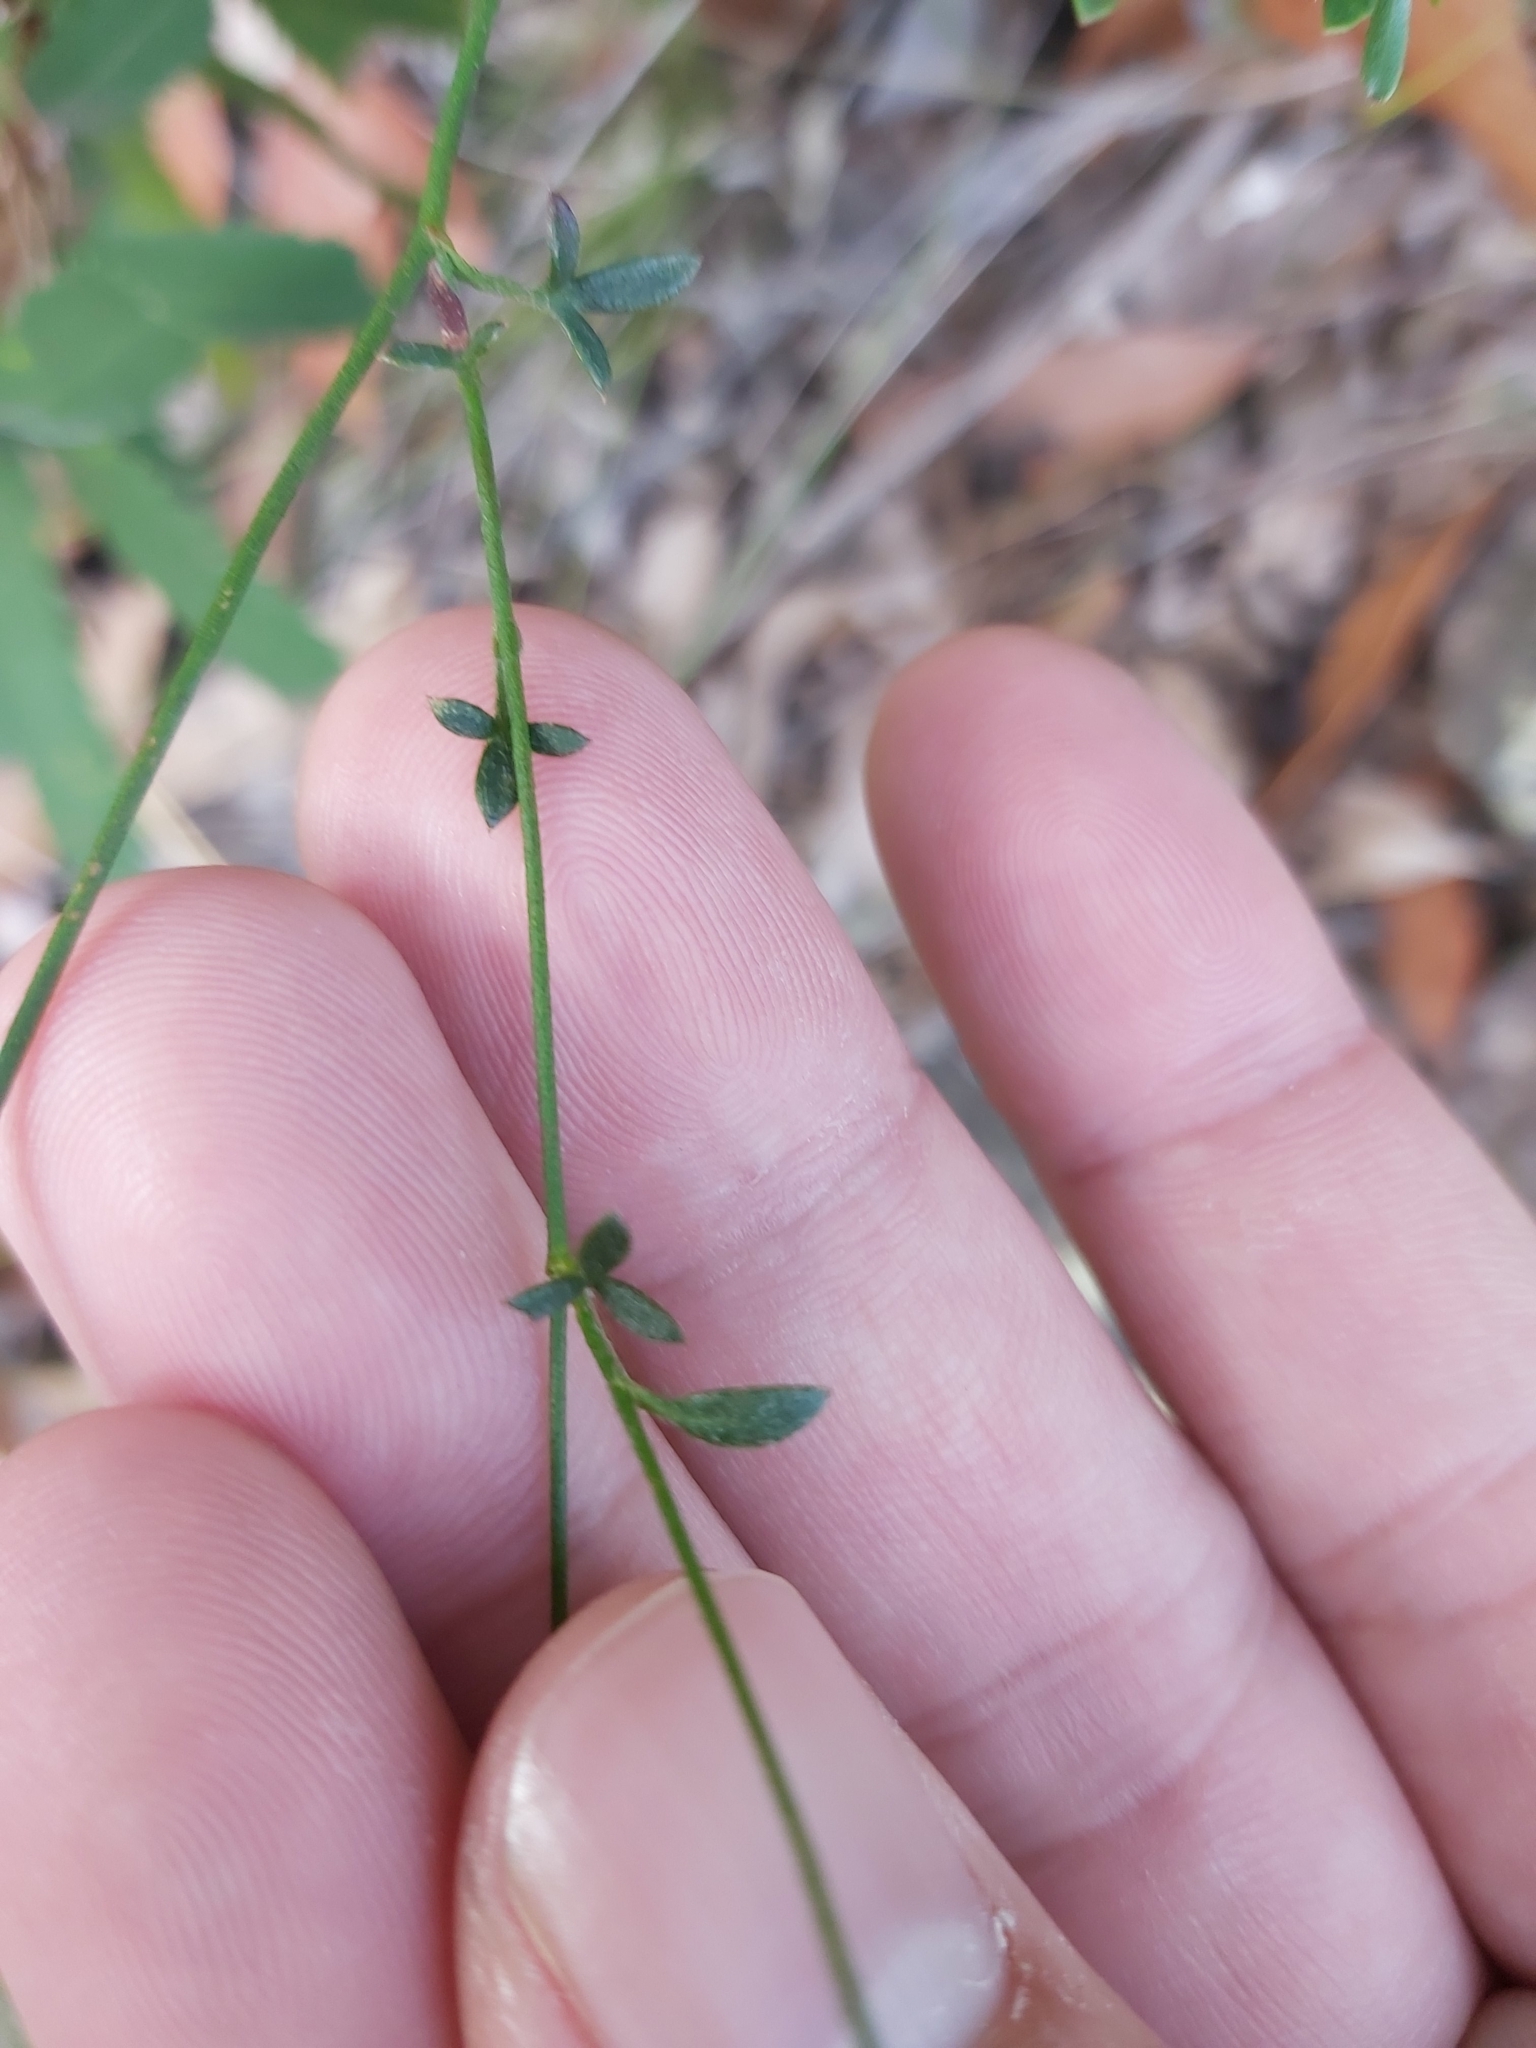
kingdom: Plantae
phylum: Tracheophyta
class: Magnoliopsida
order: Apiales
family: Apiaceae
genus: Actinotus
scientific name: Actinotus minor
